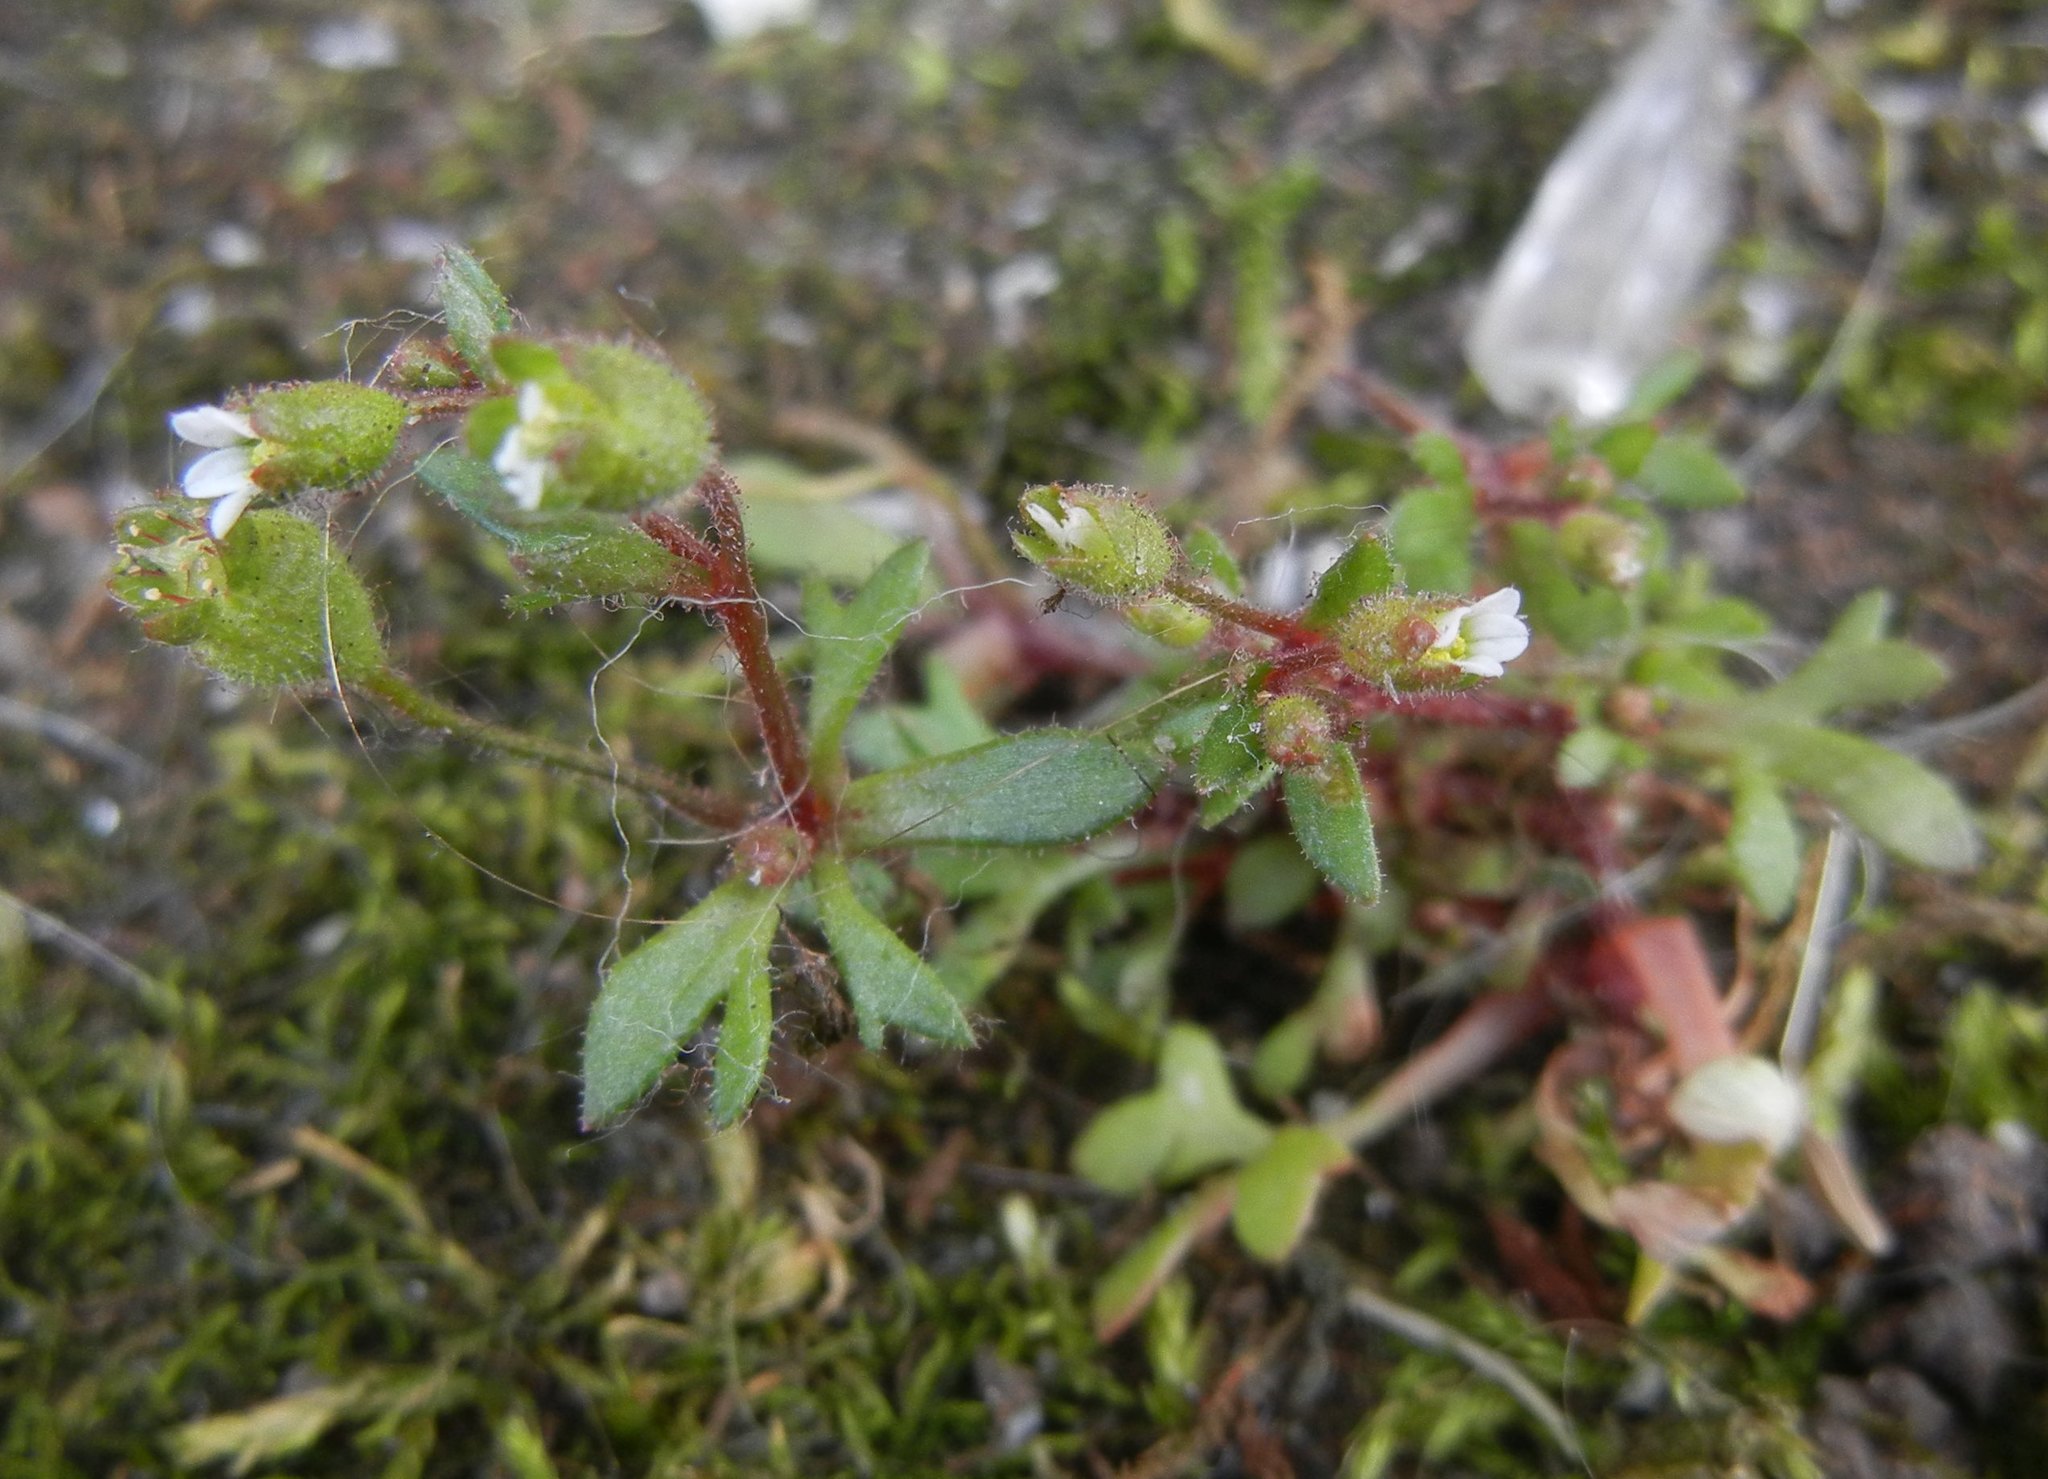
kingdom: Plantae
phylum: Tracheophyta
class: Magnoliopsida
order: Saxifragales
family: Saxifragaceae
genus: Saxifraga
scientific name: Saxifraga tridactylites
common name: Rue-leaved saxifrage
